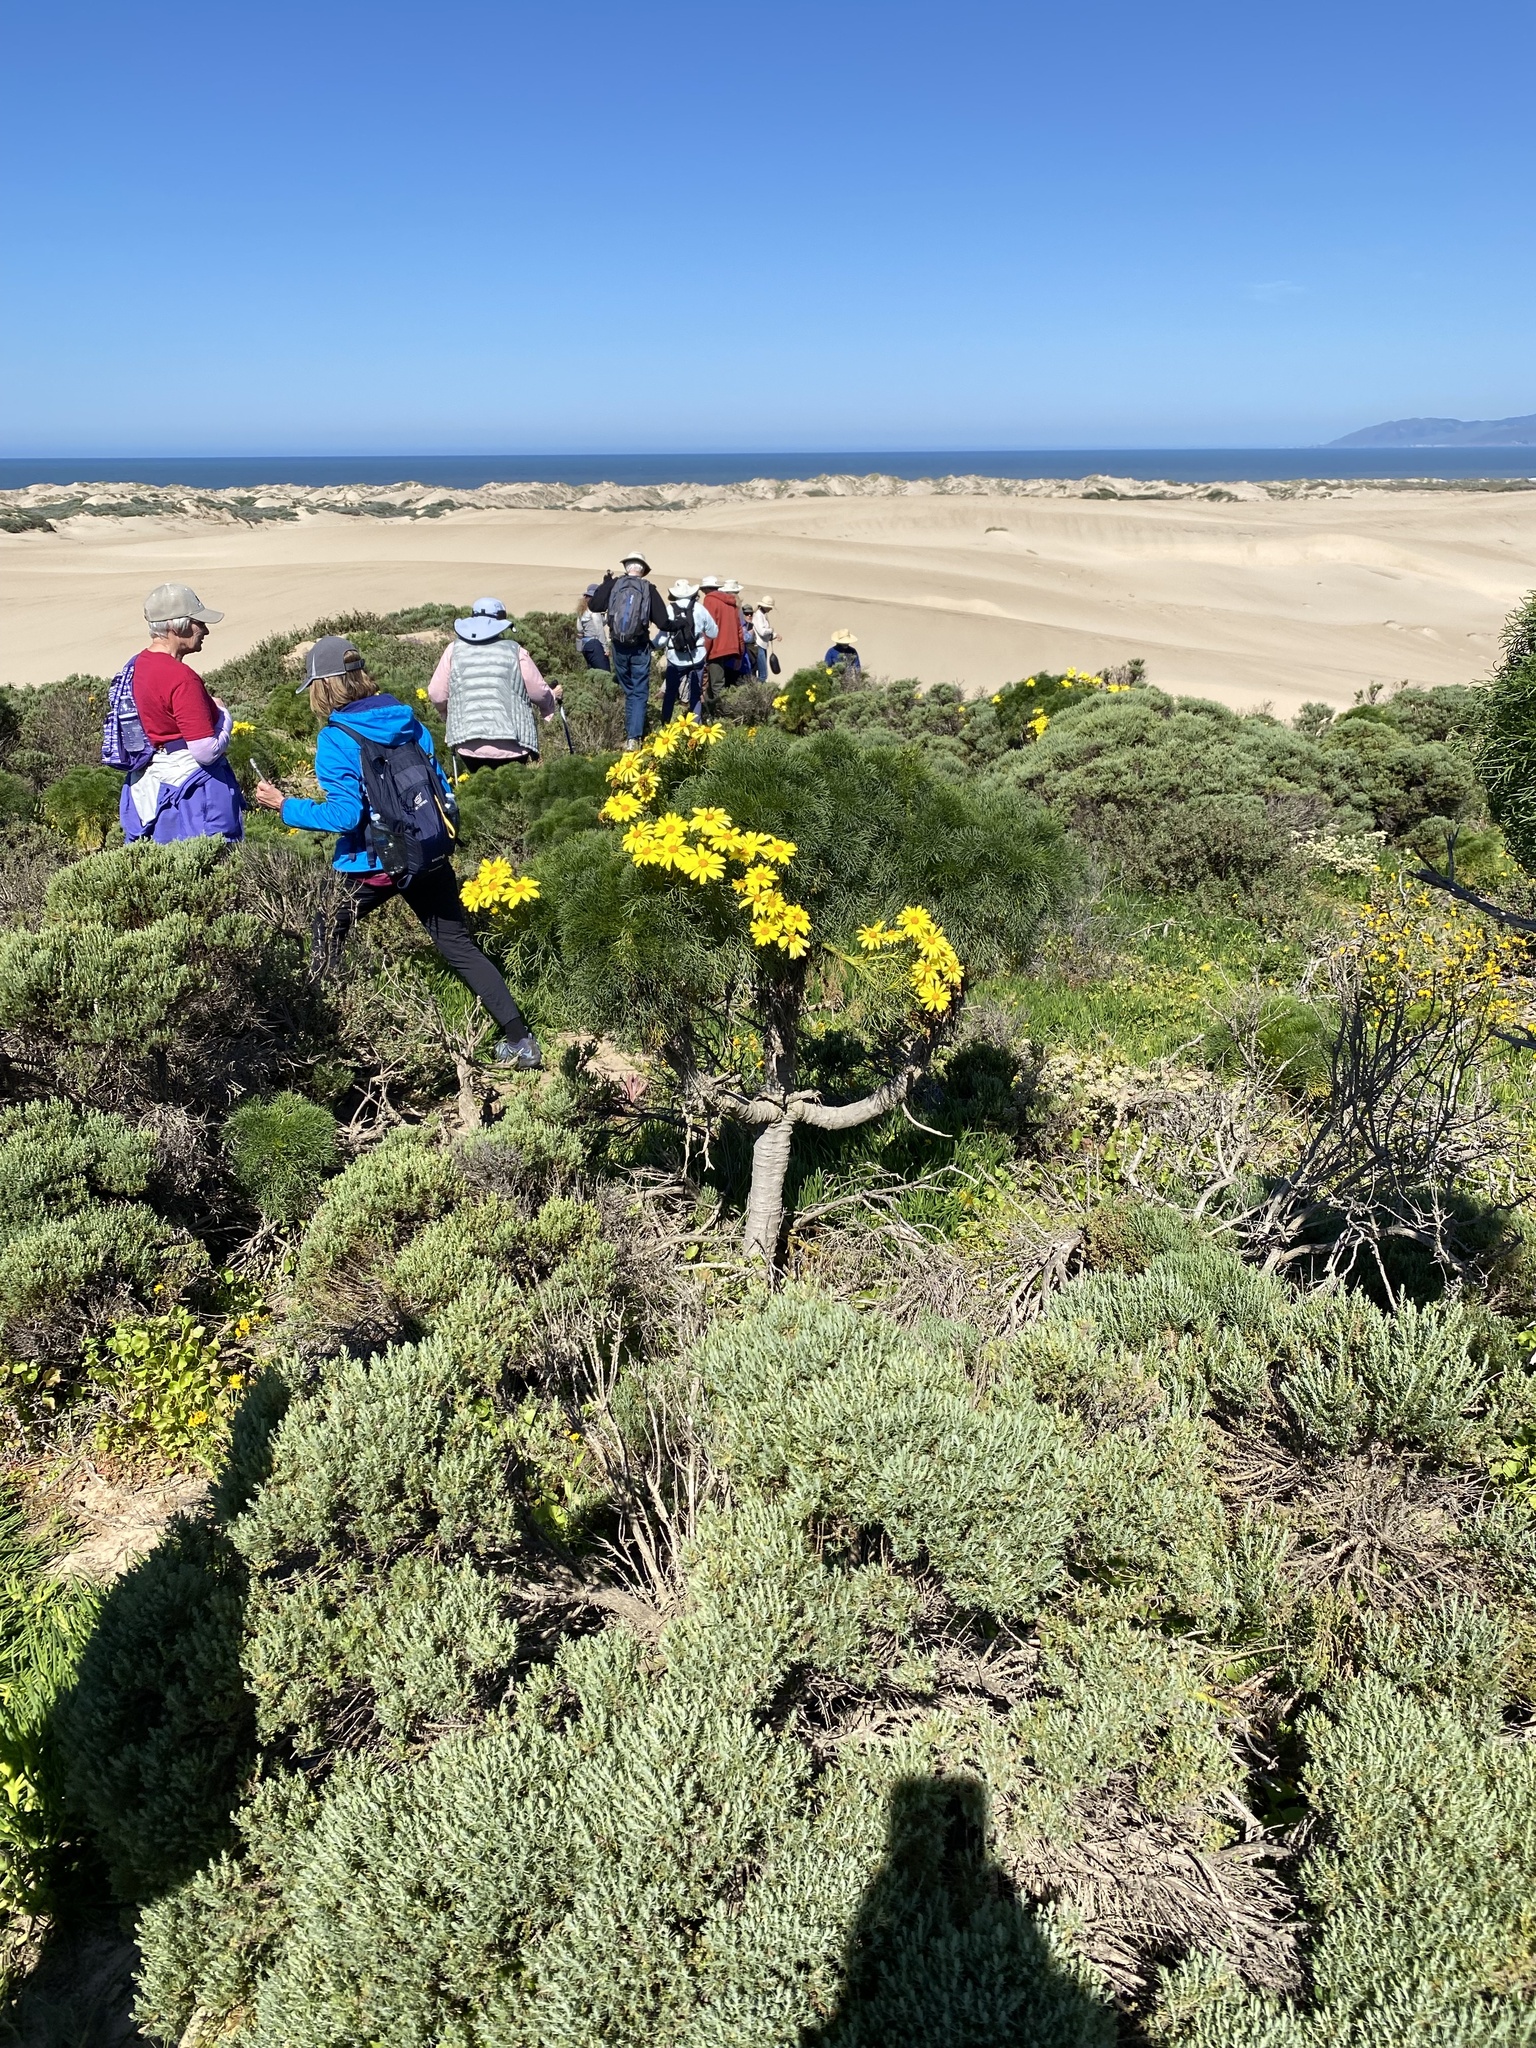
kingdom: Plantae
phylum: Tracheophyta
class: Magnoliopsida
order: Asterales
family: Asteraceae
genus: Coreopsis
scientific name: Coreopsis gigantea
